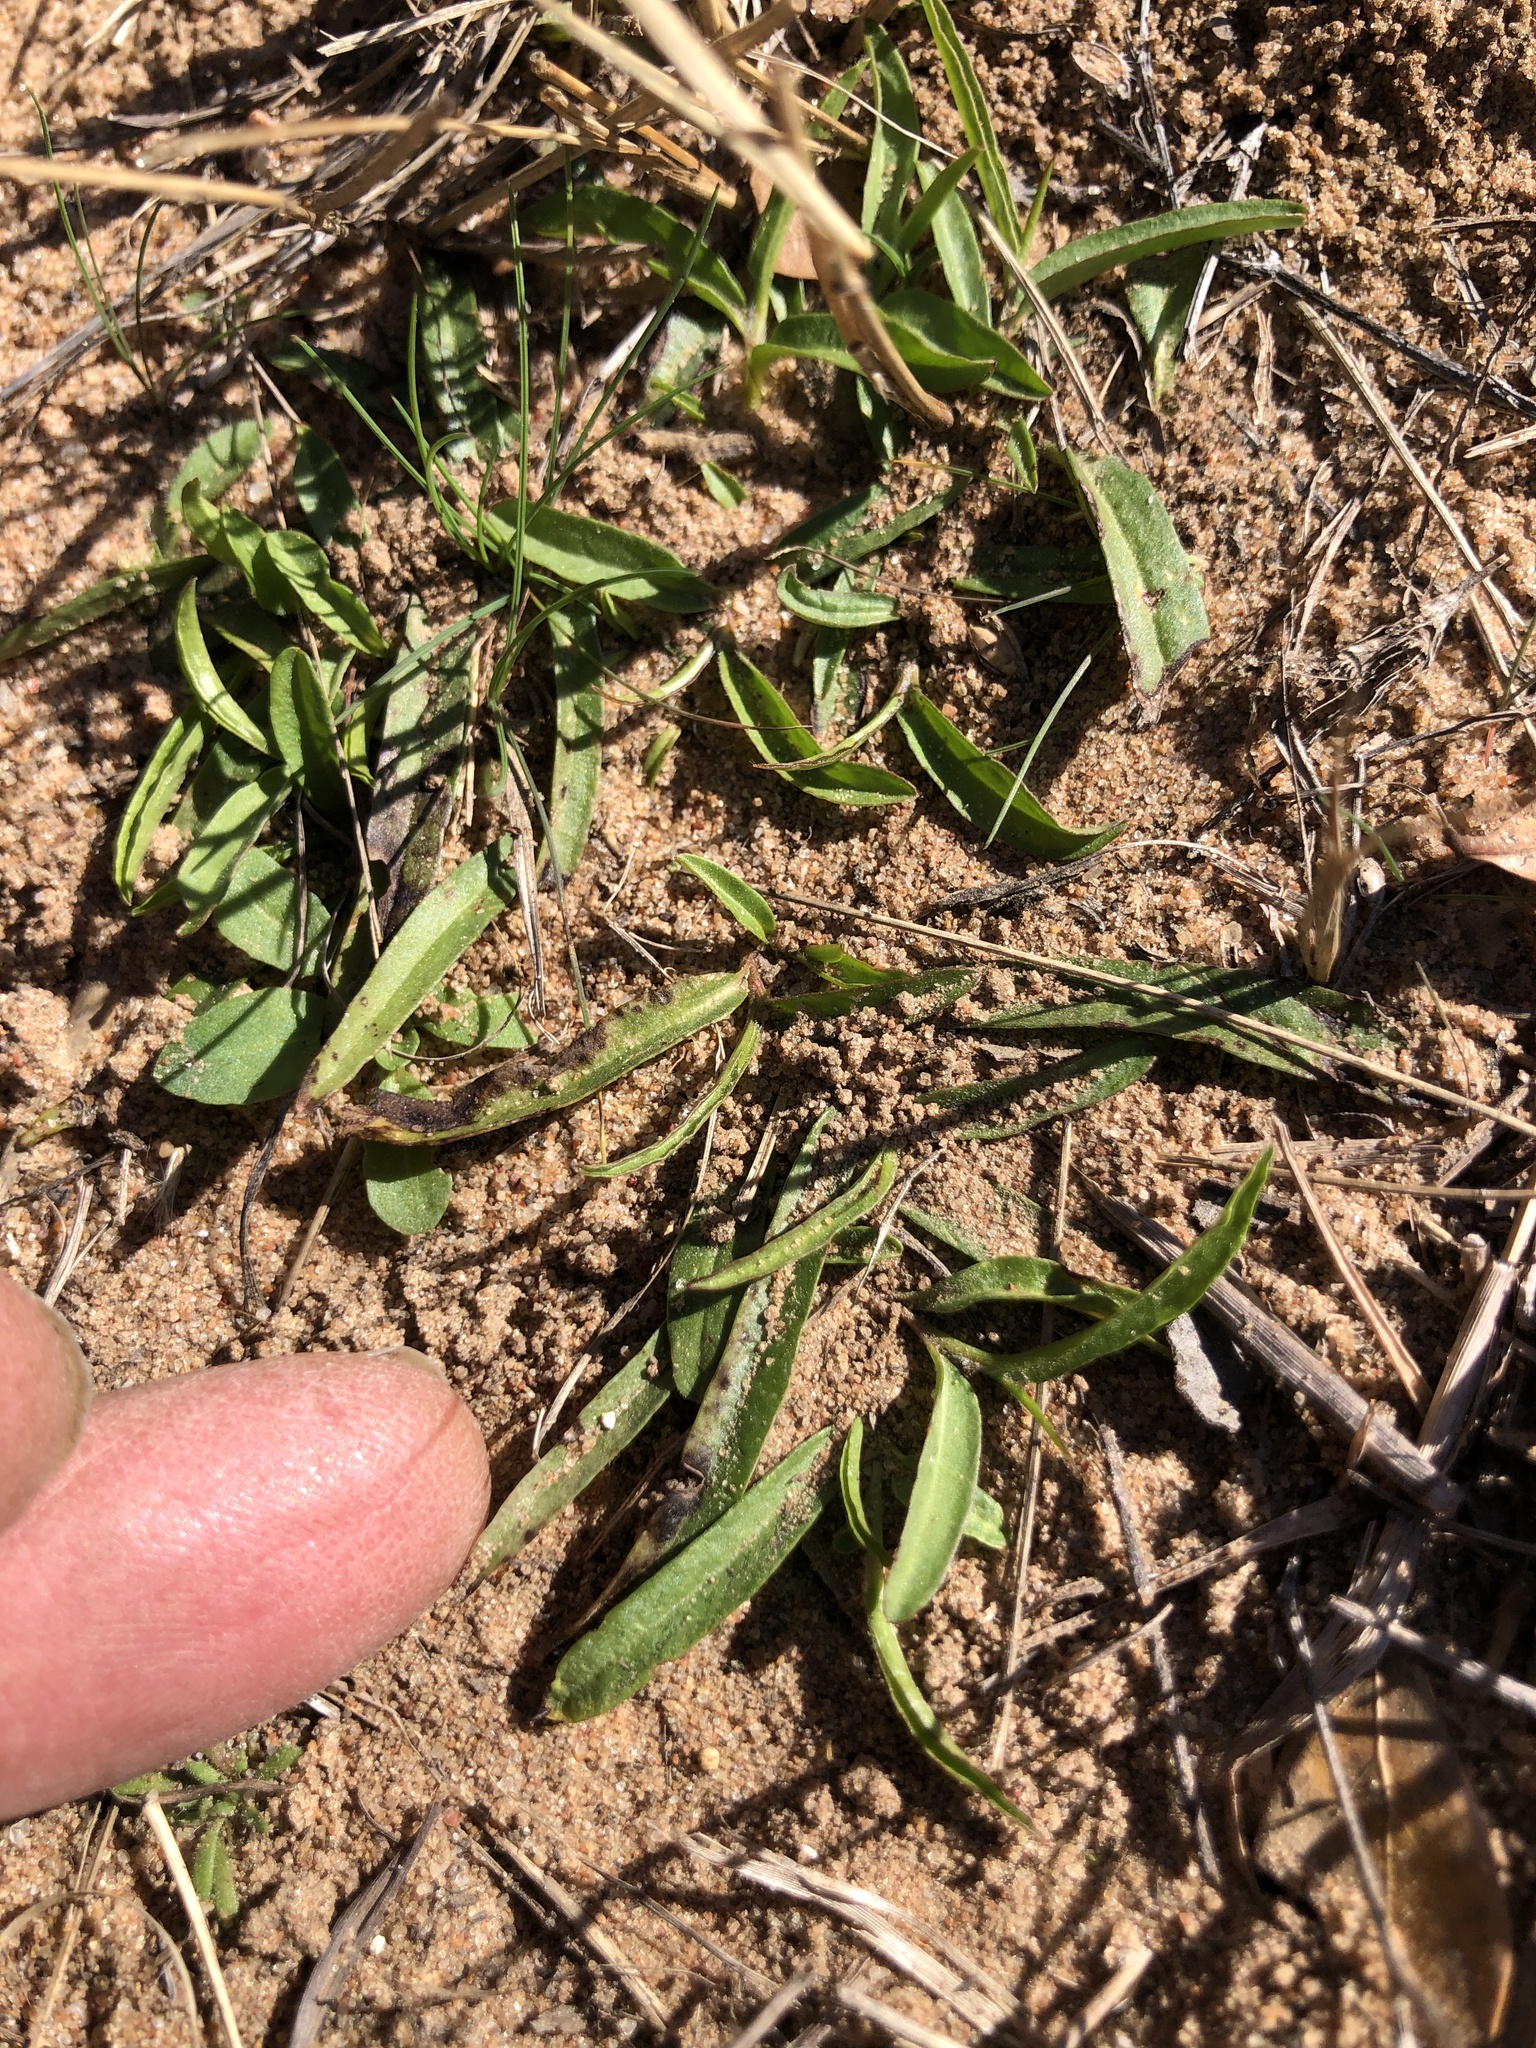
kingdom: Plantae
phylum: Tracheophyta
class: Magnoliopsida
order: Piperales
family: Aristolochiaceae
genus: Aristolochia
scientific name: Aristolochia erecta
